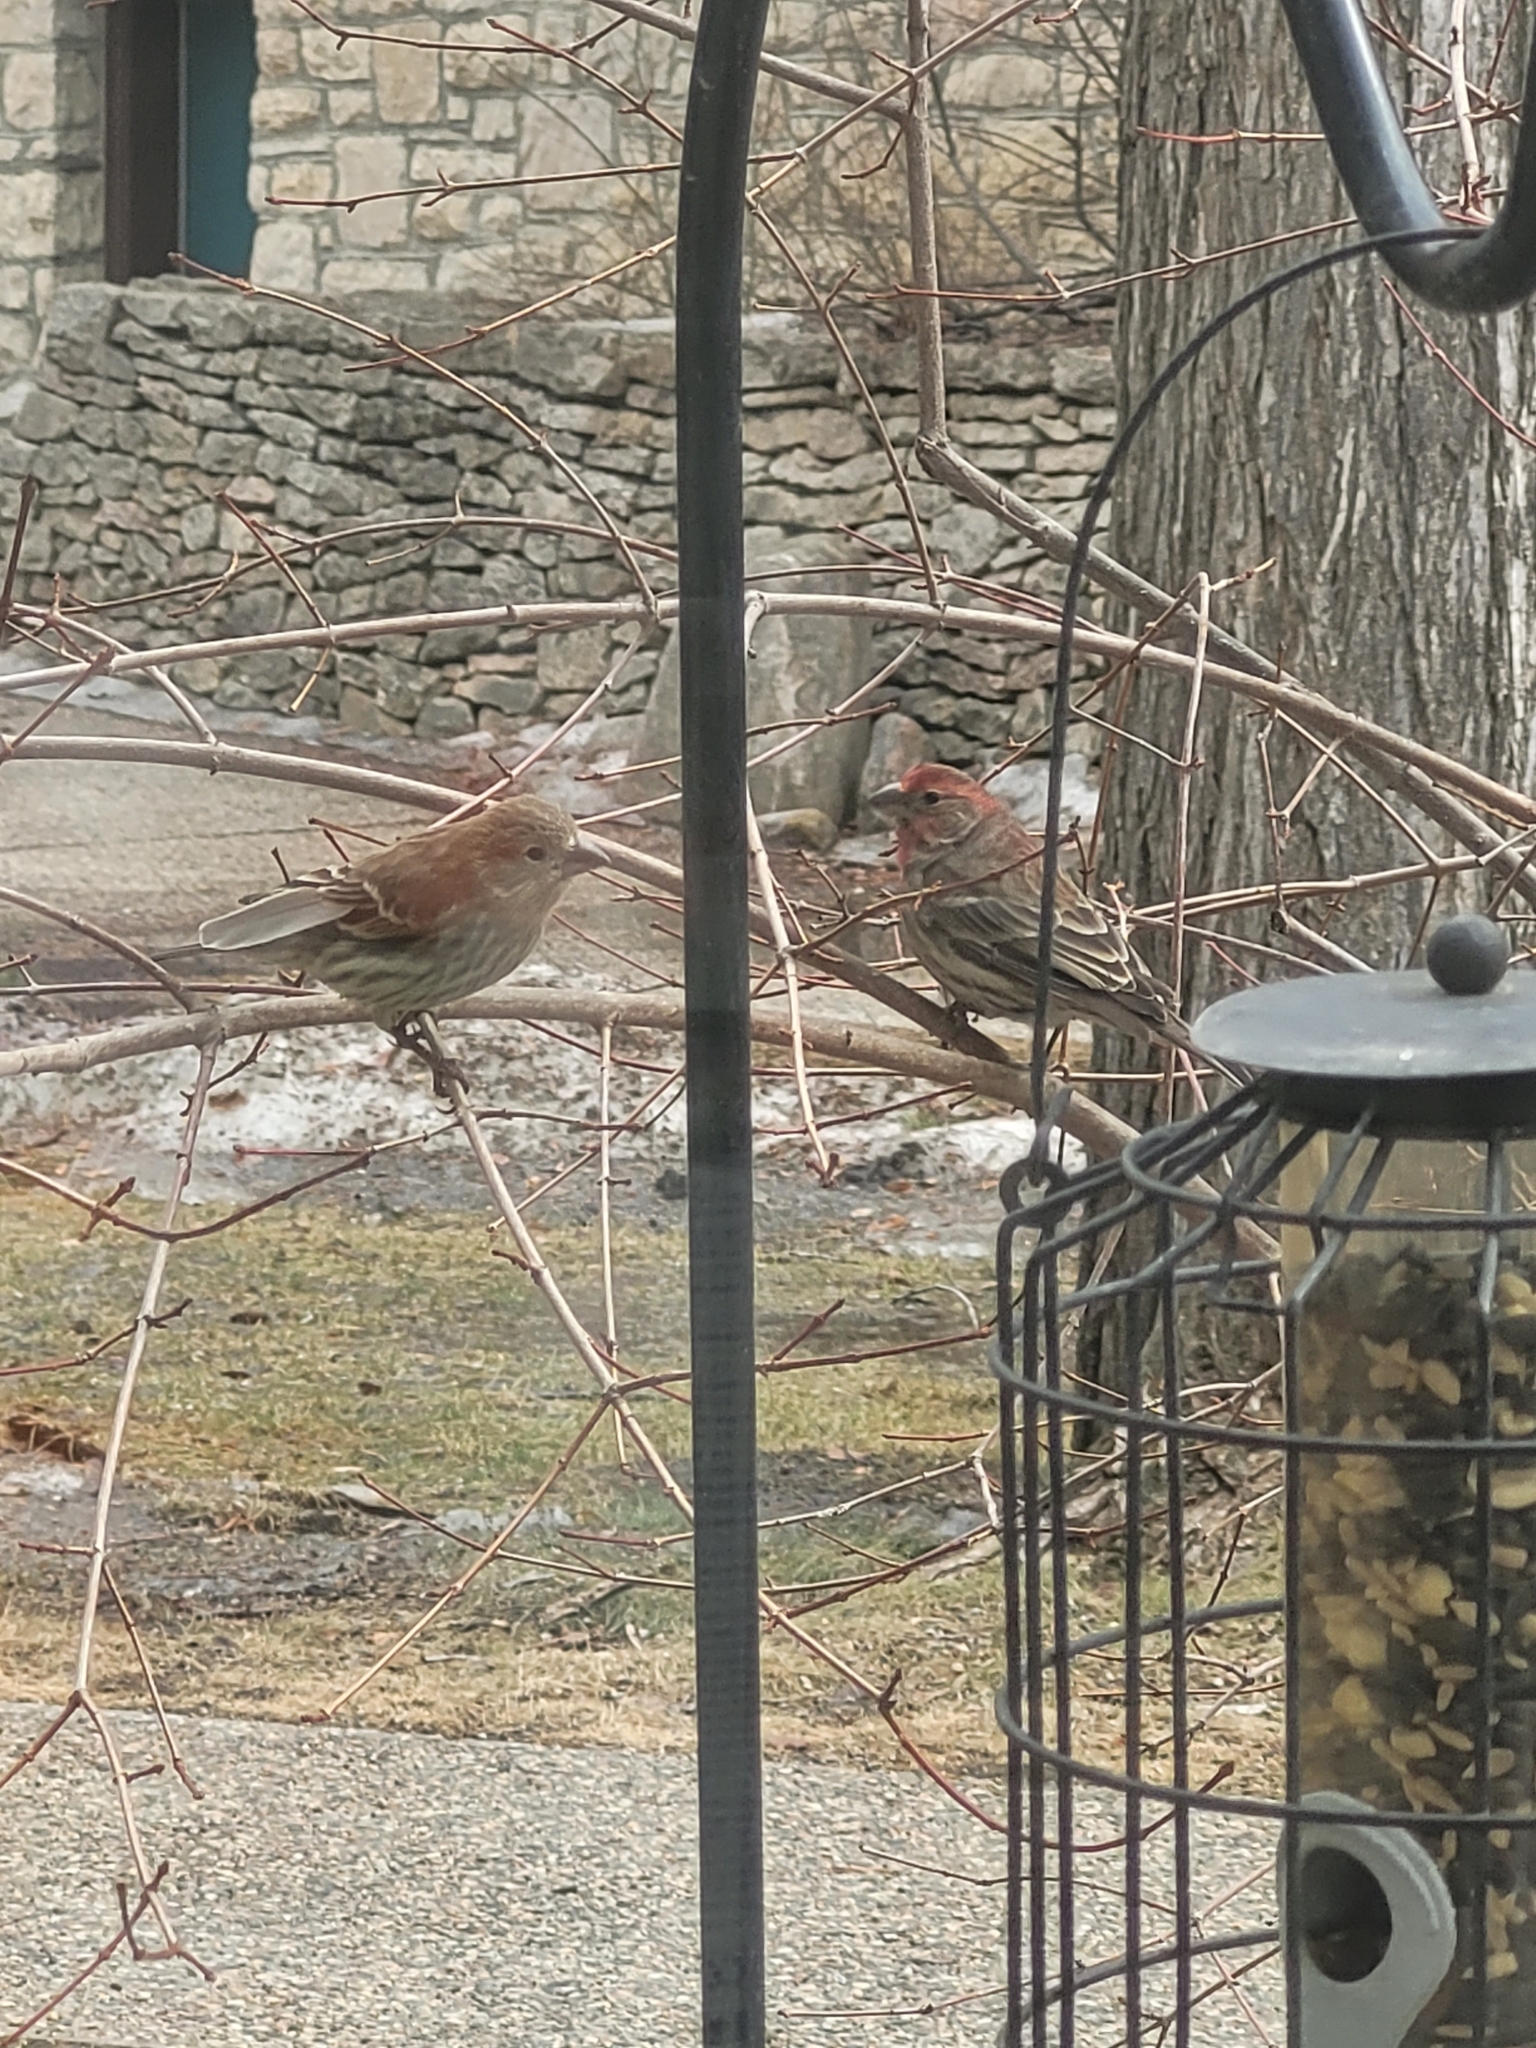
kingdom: Animalia
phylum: Chordata
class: Aves
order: Passeriformes
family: Fringillidae
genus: Haemorhous
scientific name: Haemorhous mexicanus
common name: House finch
